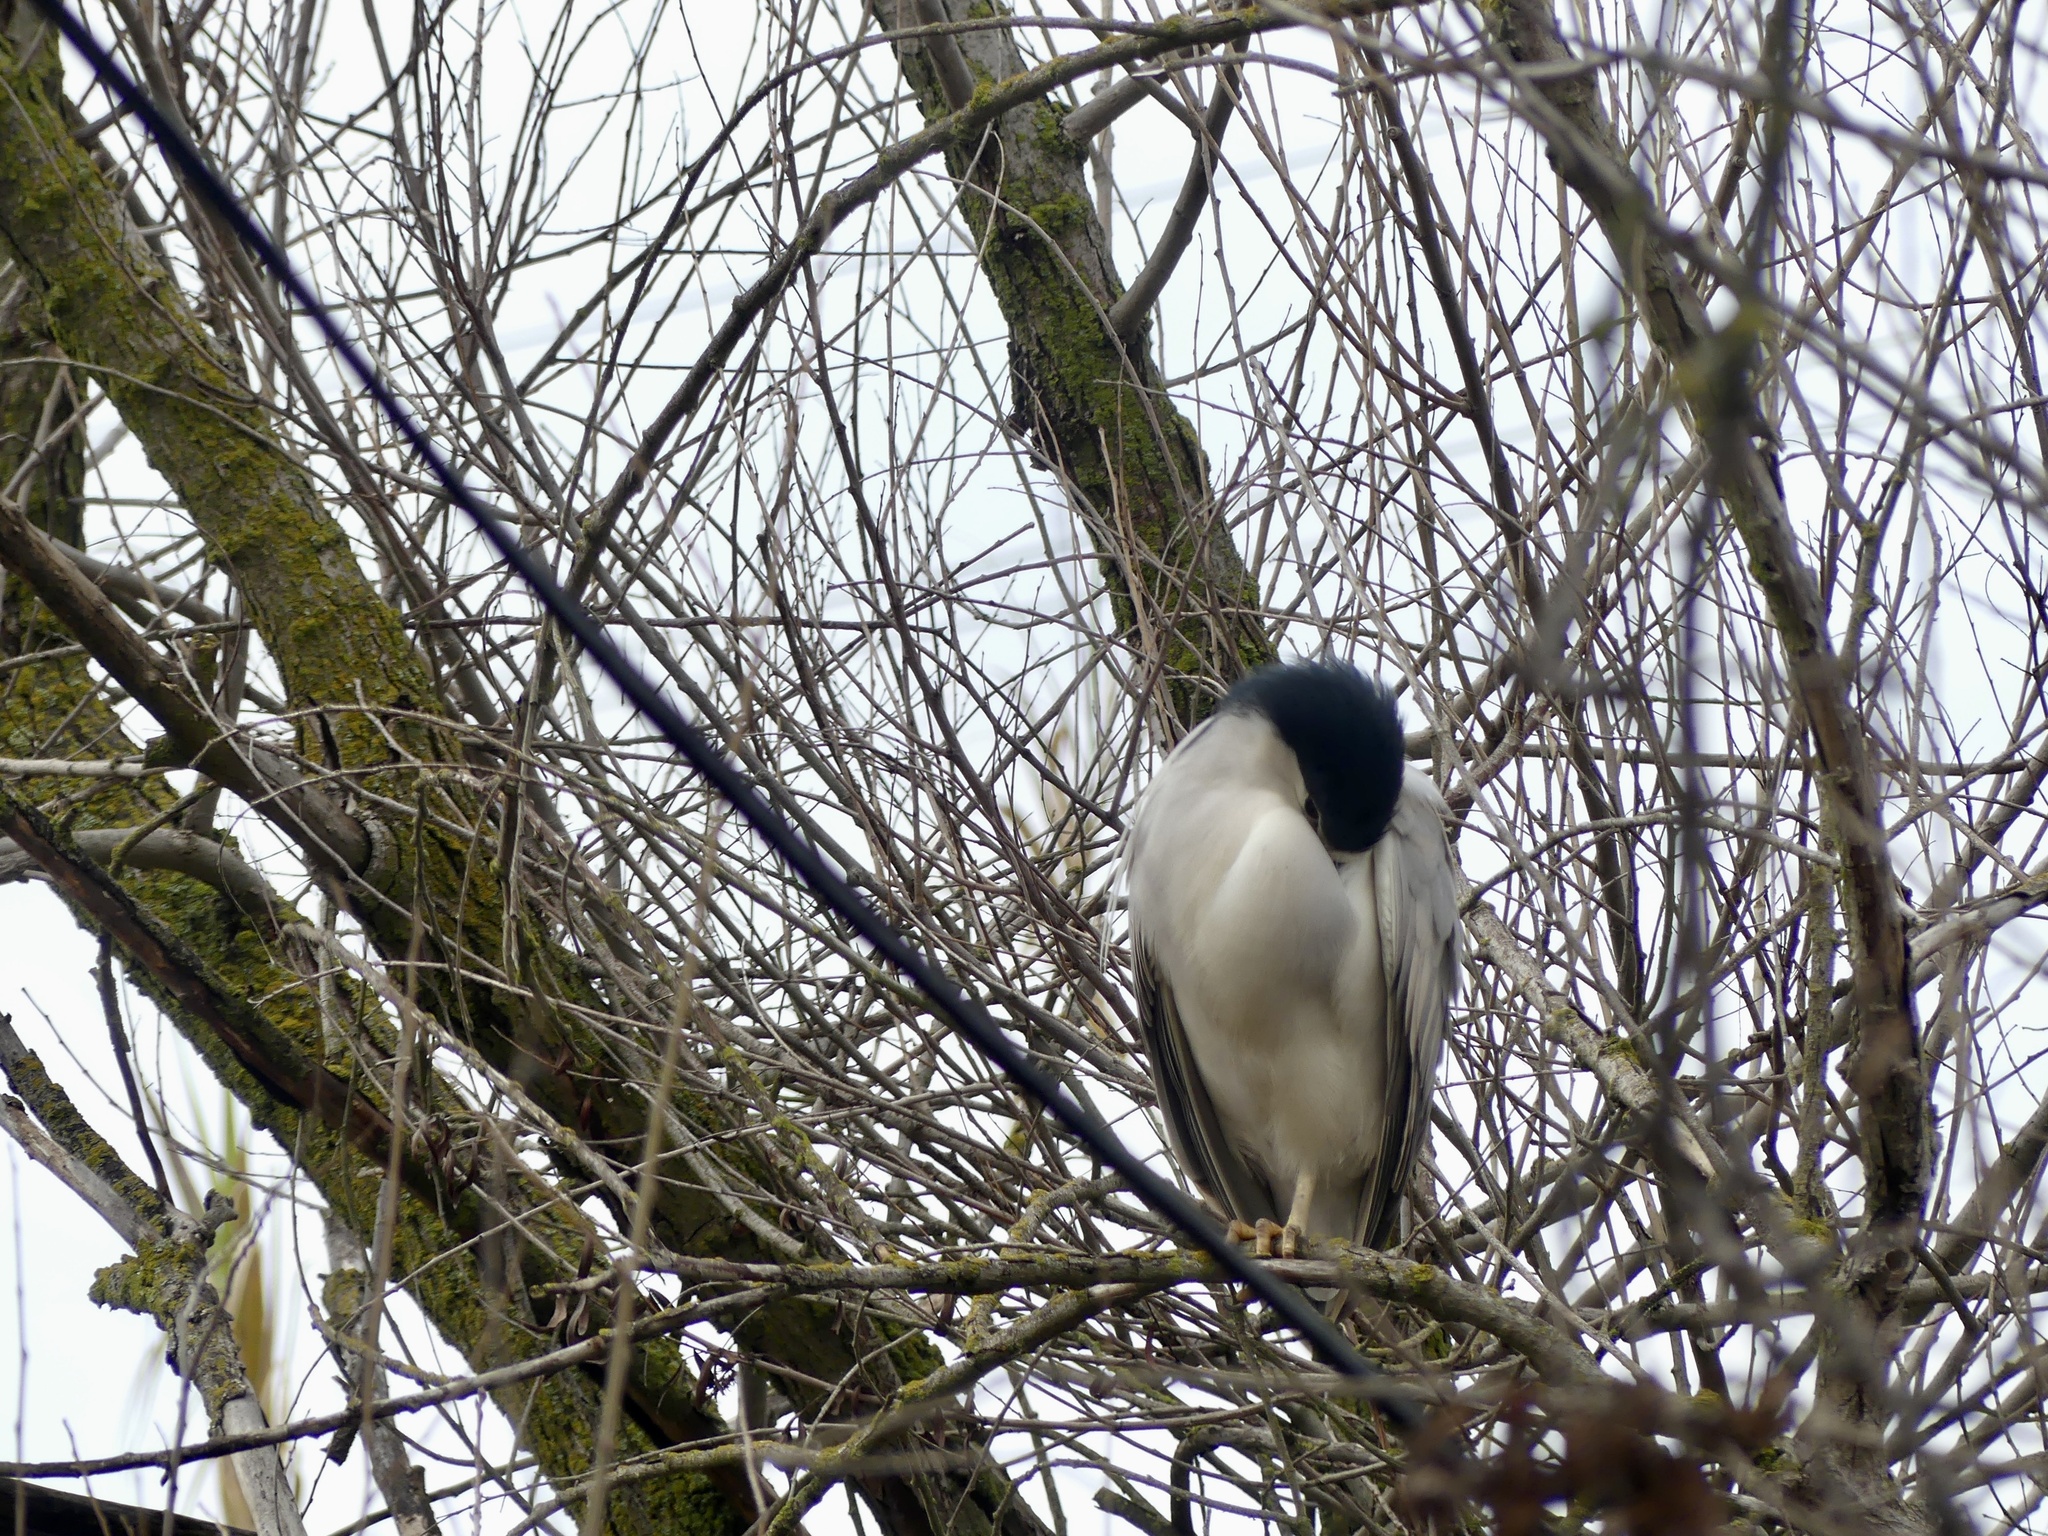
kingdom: Animalia
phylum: Chordata
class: Aves
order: Pelecaniformes
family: Ardeidae
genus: Nycticorax
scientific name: Nycticorax nycticorax
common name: Black-crowned night heron
